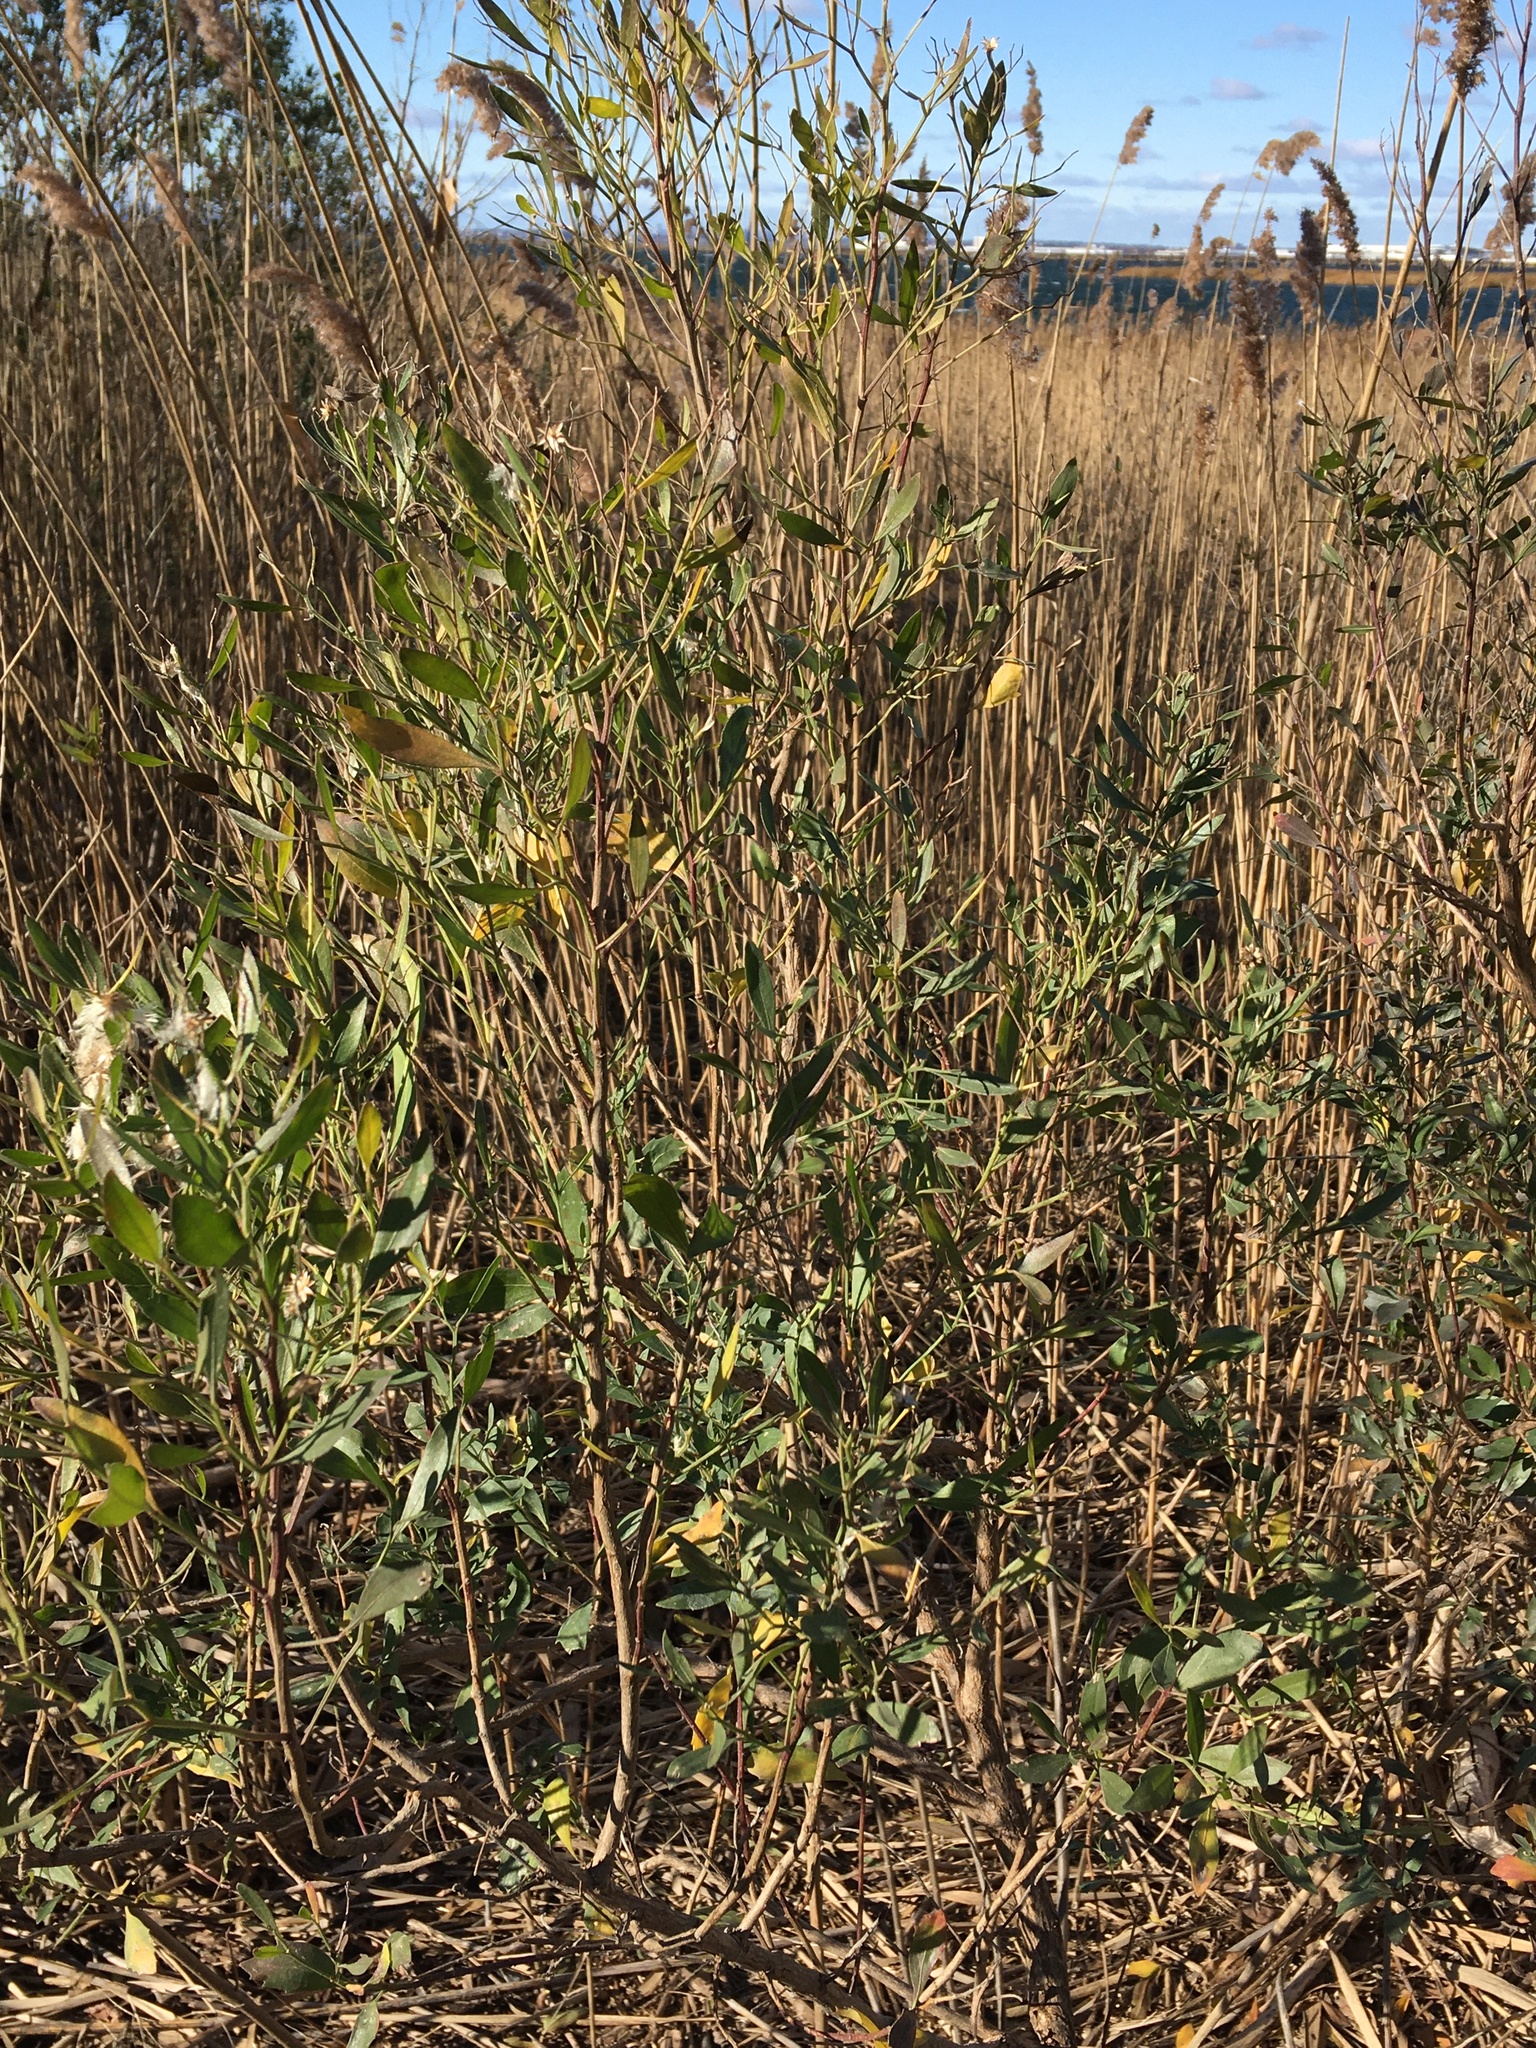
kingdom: Plantae
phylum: Tracheophyta
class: Magnoliopsida
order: Asterales
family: Asteraceae
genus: Baccharis
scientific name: Baccharis halimifolia
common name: Eastern baccharis
